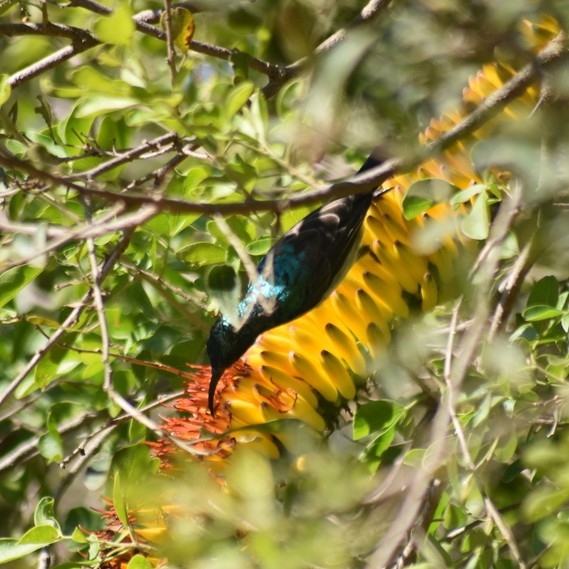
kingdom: Animalia
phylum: Chordata
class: Aves
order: Passeriformes
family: Nectariniidae
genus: Cinnyris
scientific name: Cinnyris talatala
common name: White-bellied sunbird
